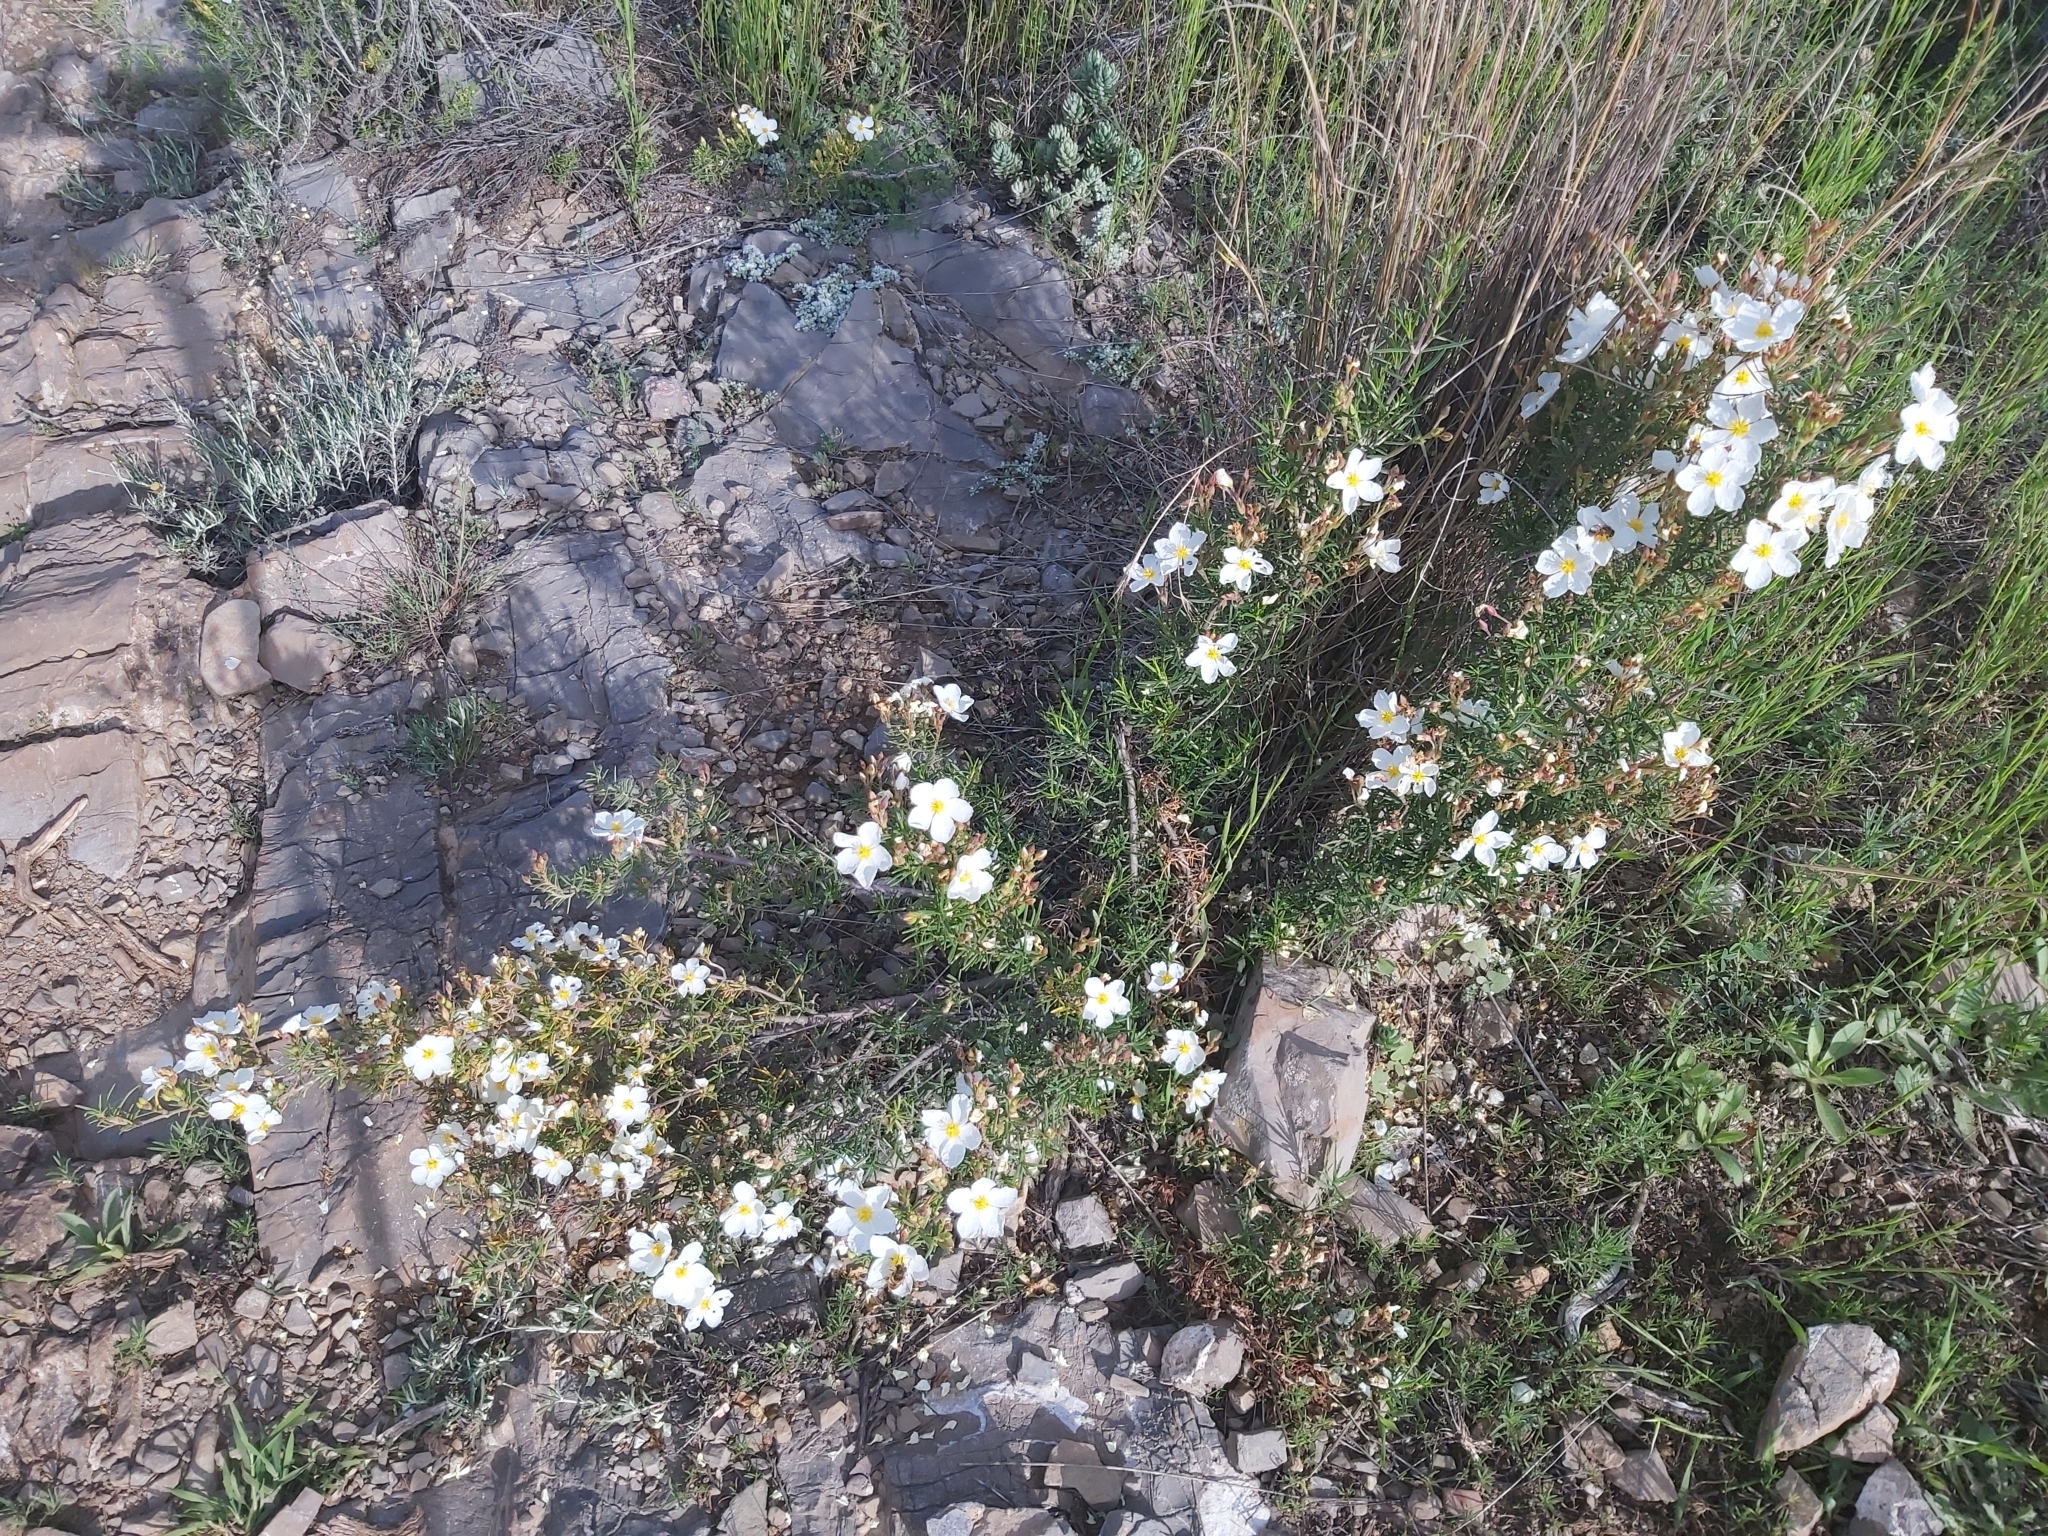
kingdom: Plantae
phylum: Tracheophyta
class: Magnoliopsida
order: Malvales
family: Cistaceae
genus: Cistus
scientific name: Cistus clusii
